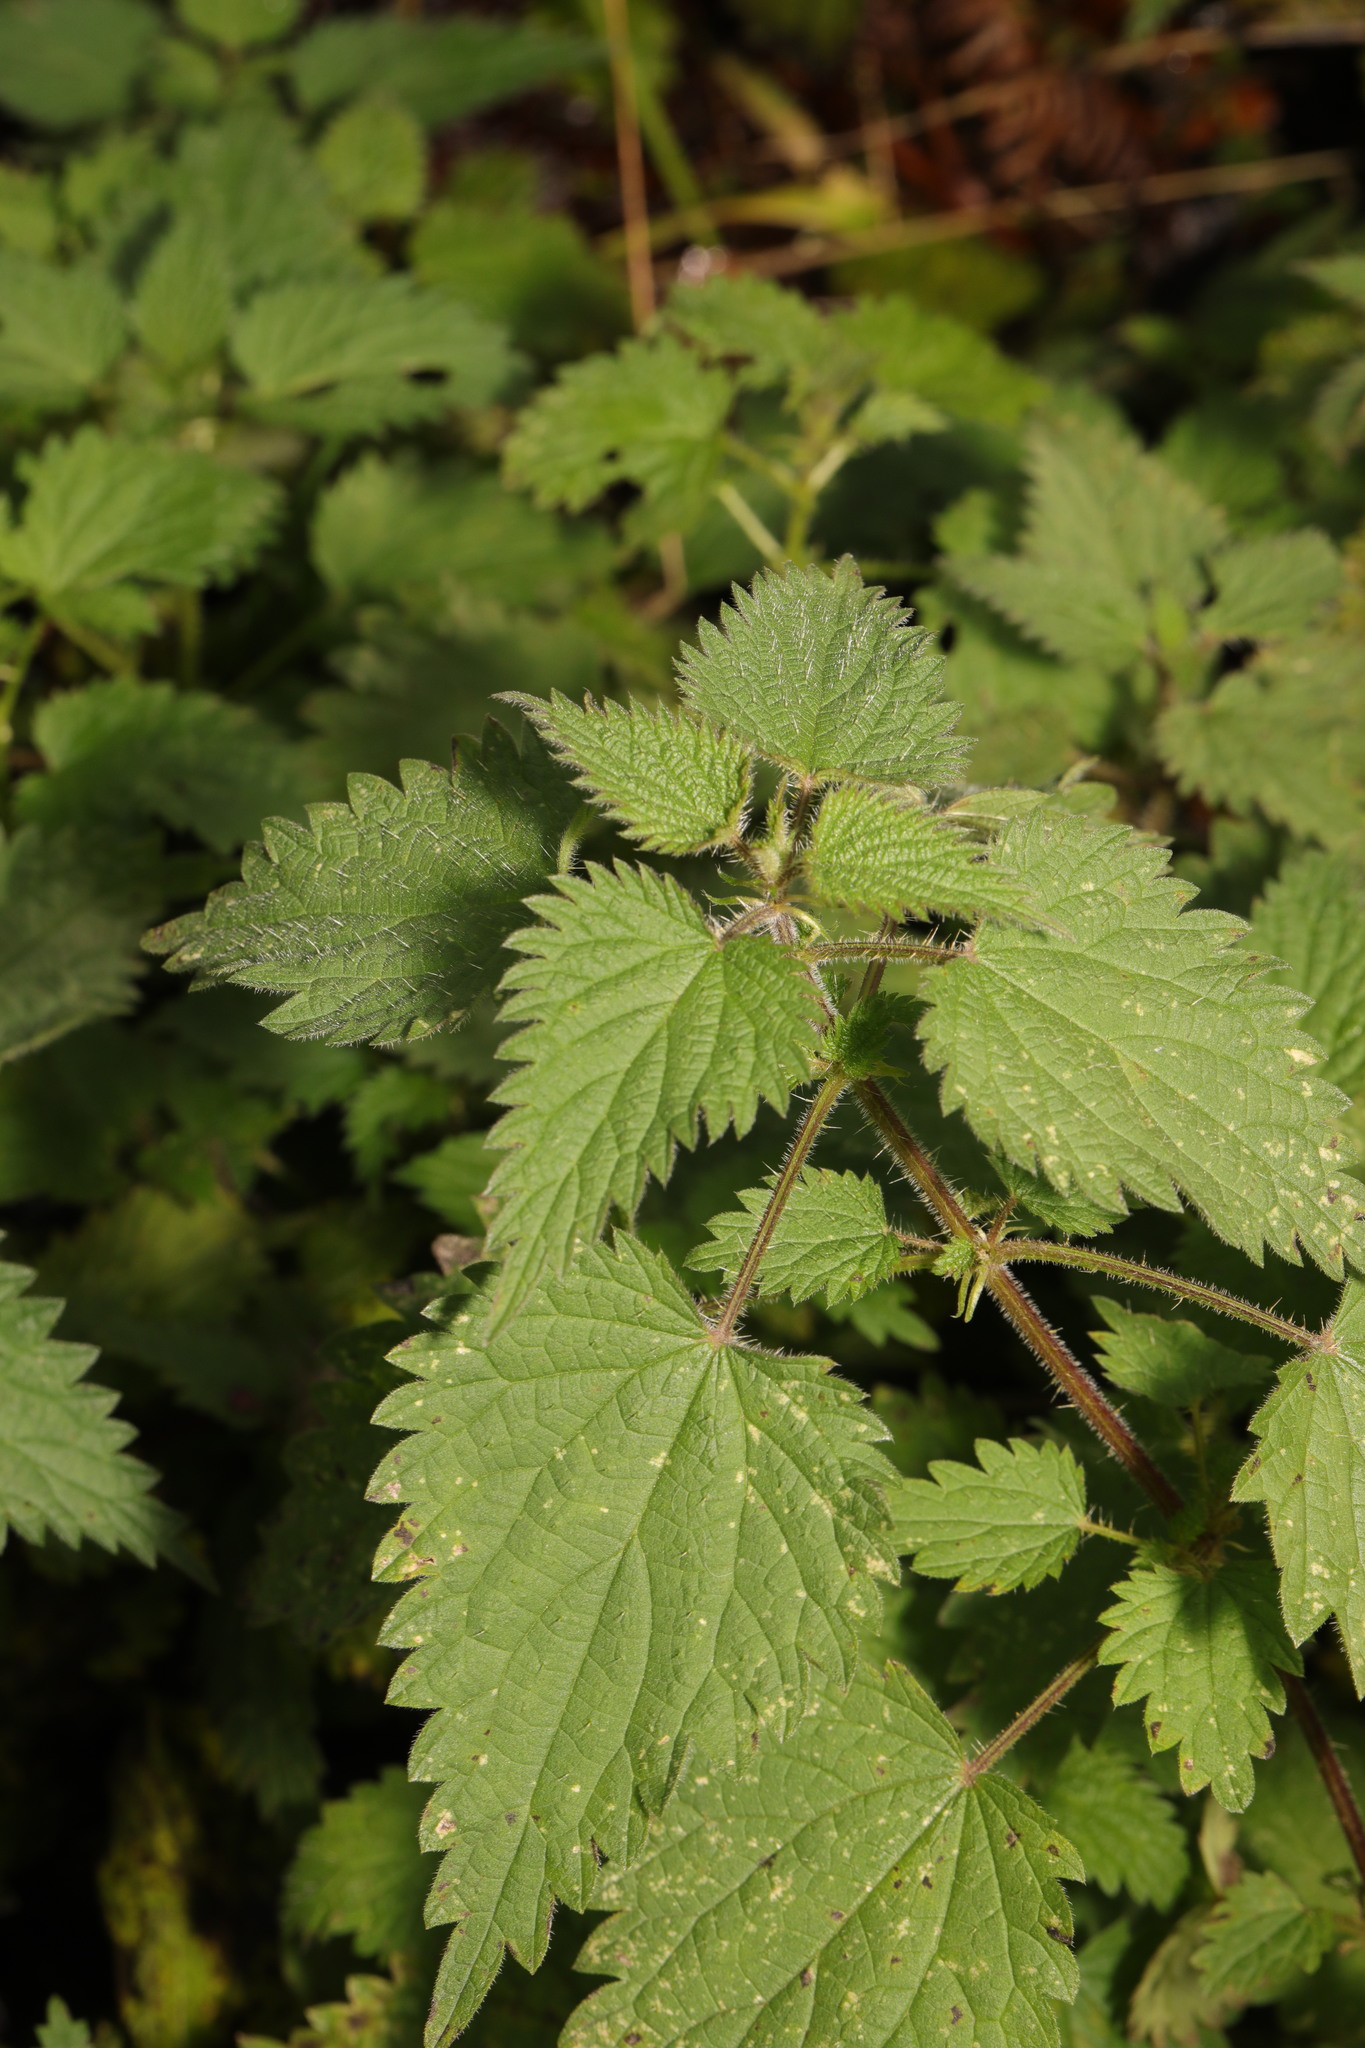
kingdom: Plantae
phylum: Tracheophyta
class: Magnoliopsida
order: Rosales
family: Urticaceae
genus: Urtica
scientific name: Urtica dioica
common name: Common nettle
